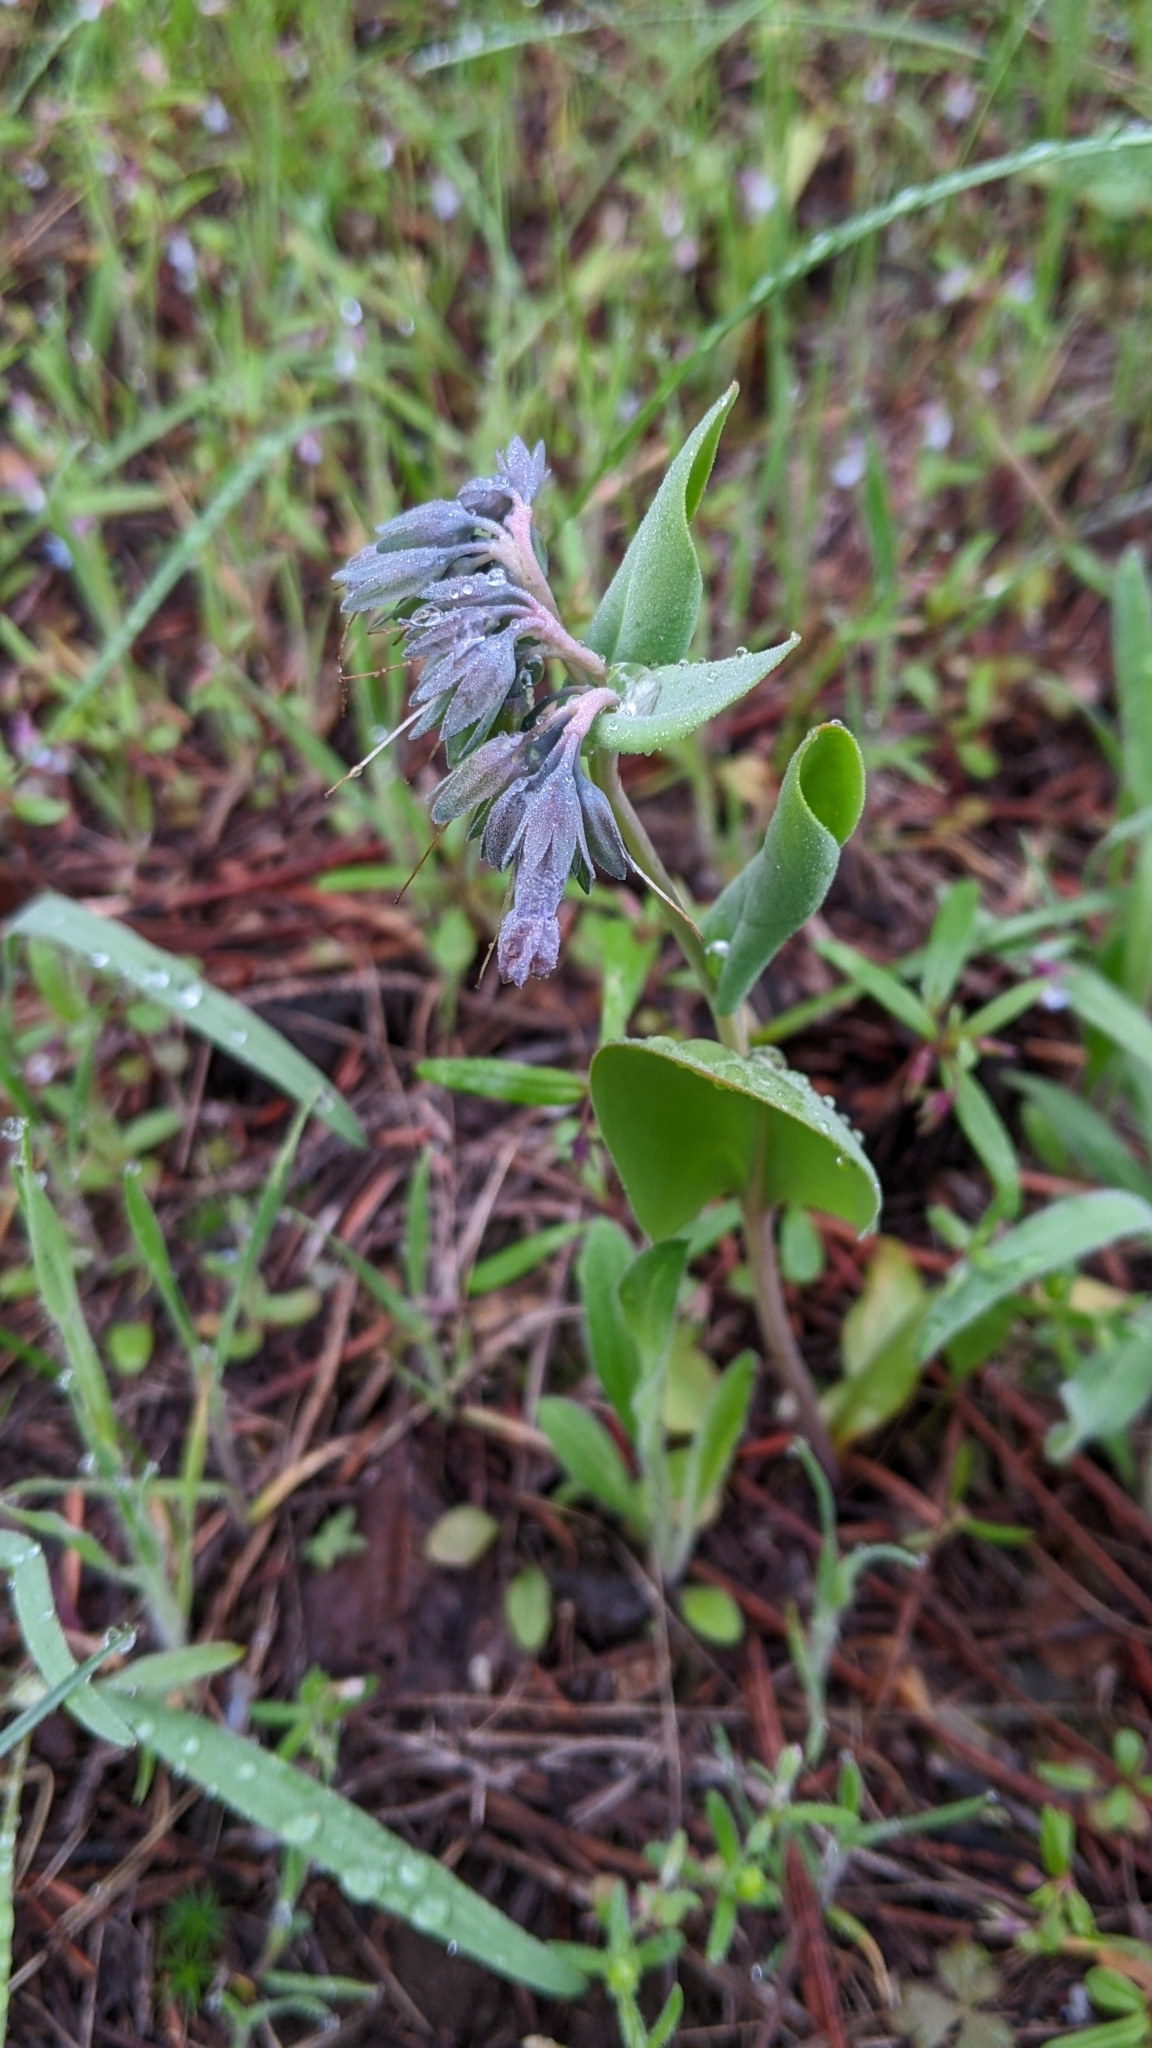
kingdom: Plantae
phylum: Tracheophyta
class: Magnoliopsida
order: Boraginales
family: Boraginaceae
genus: Mertensia
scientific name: Mertensia longiflora
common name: Large-flowered bluebells
